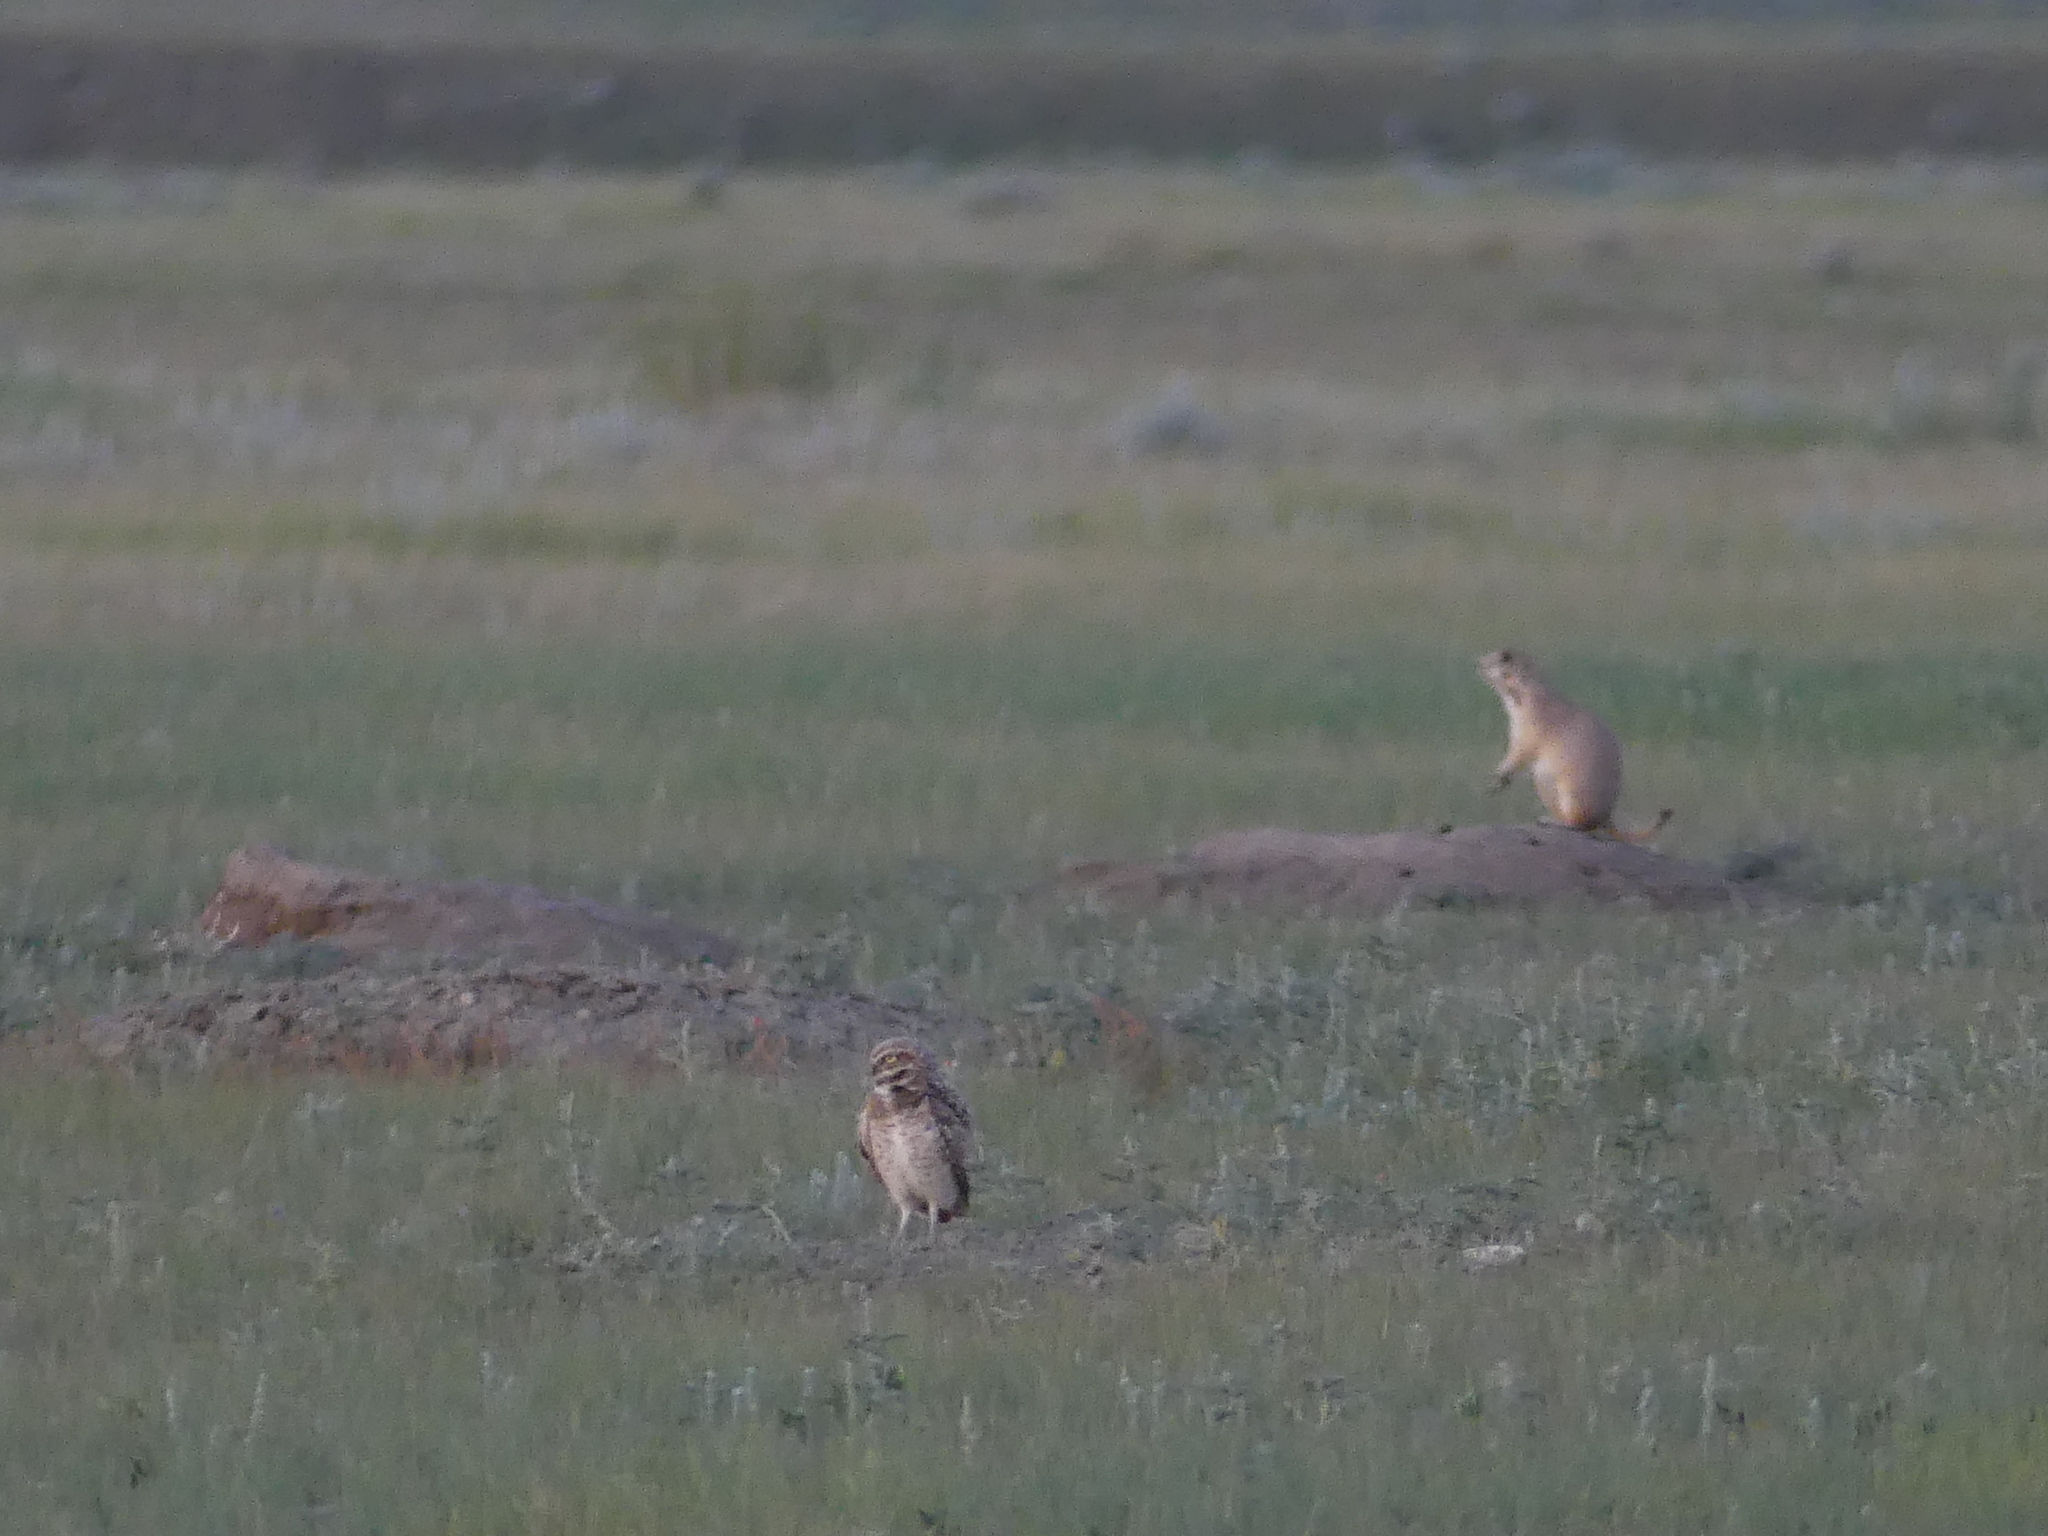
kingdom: Animalia
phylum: Chordata
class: Aves
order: Strigiformes
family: Strigidae
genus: Athene
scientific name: Athene cunicularia
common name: Burrowing owl
